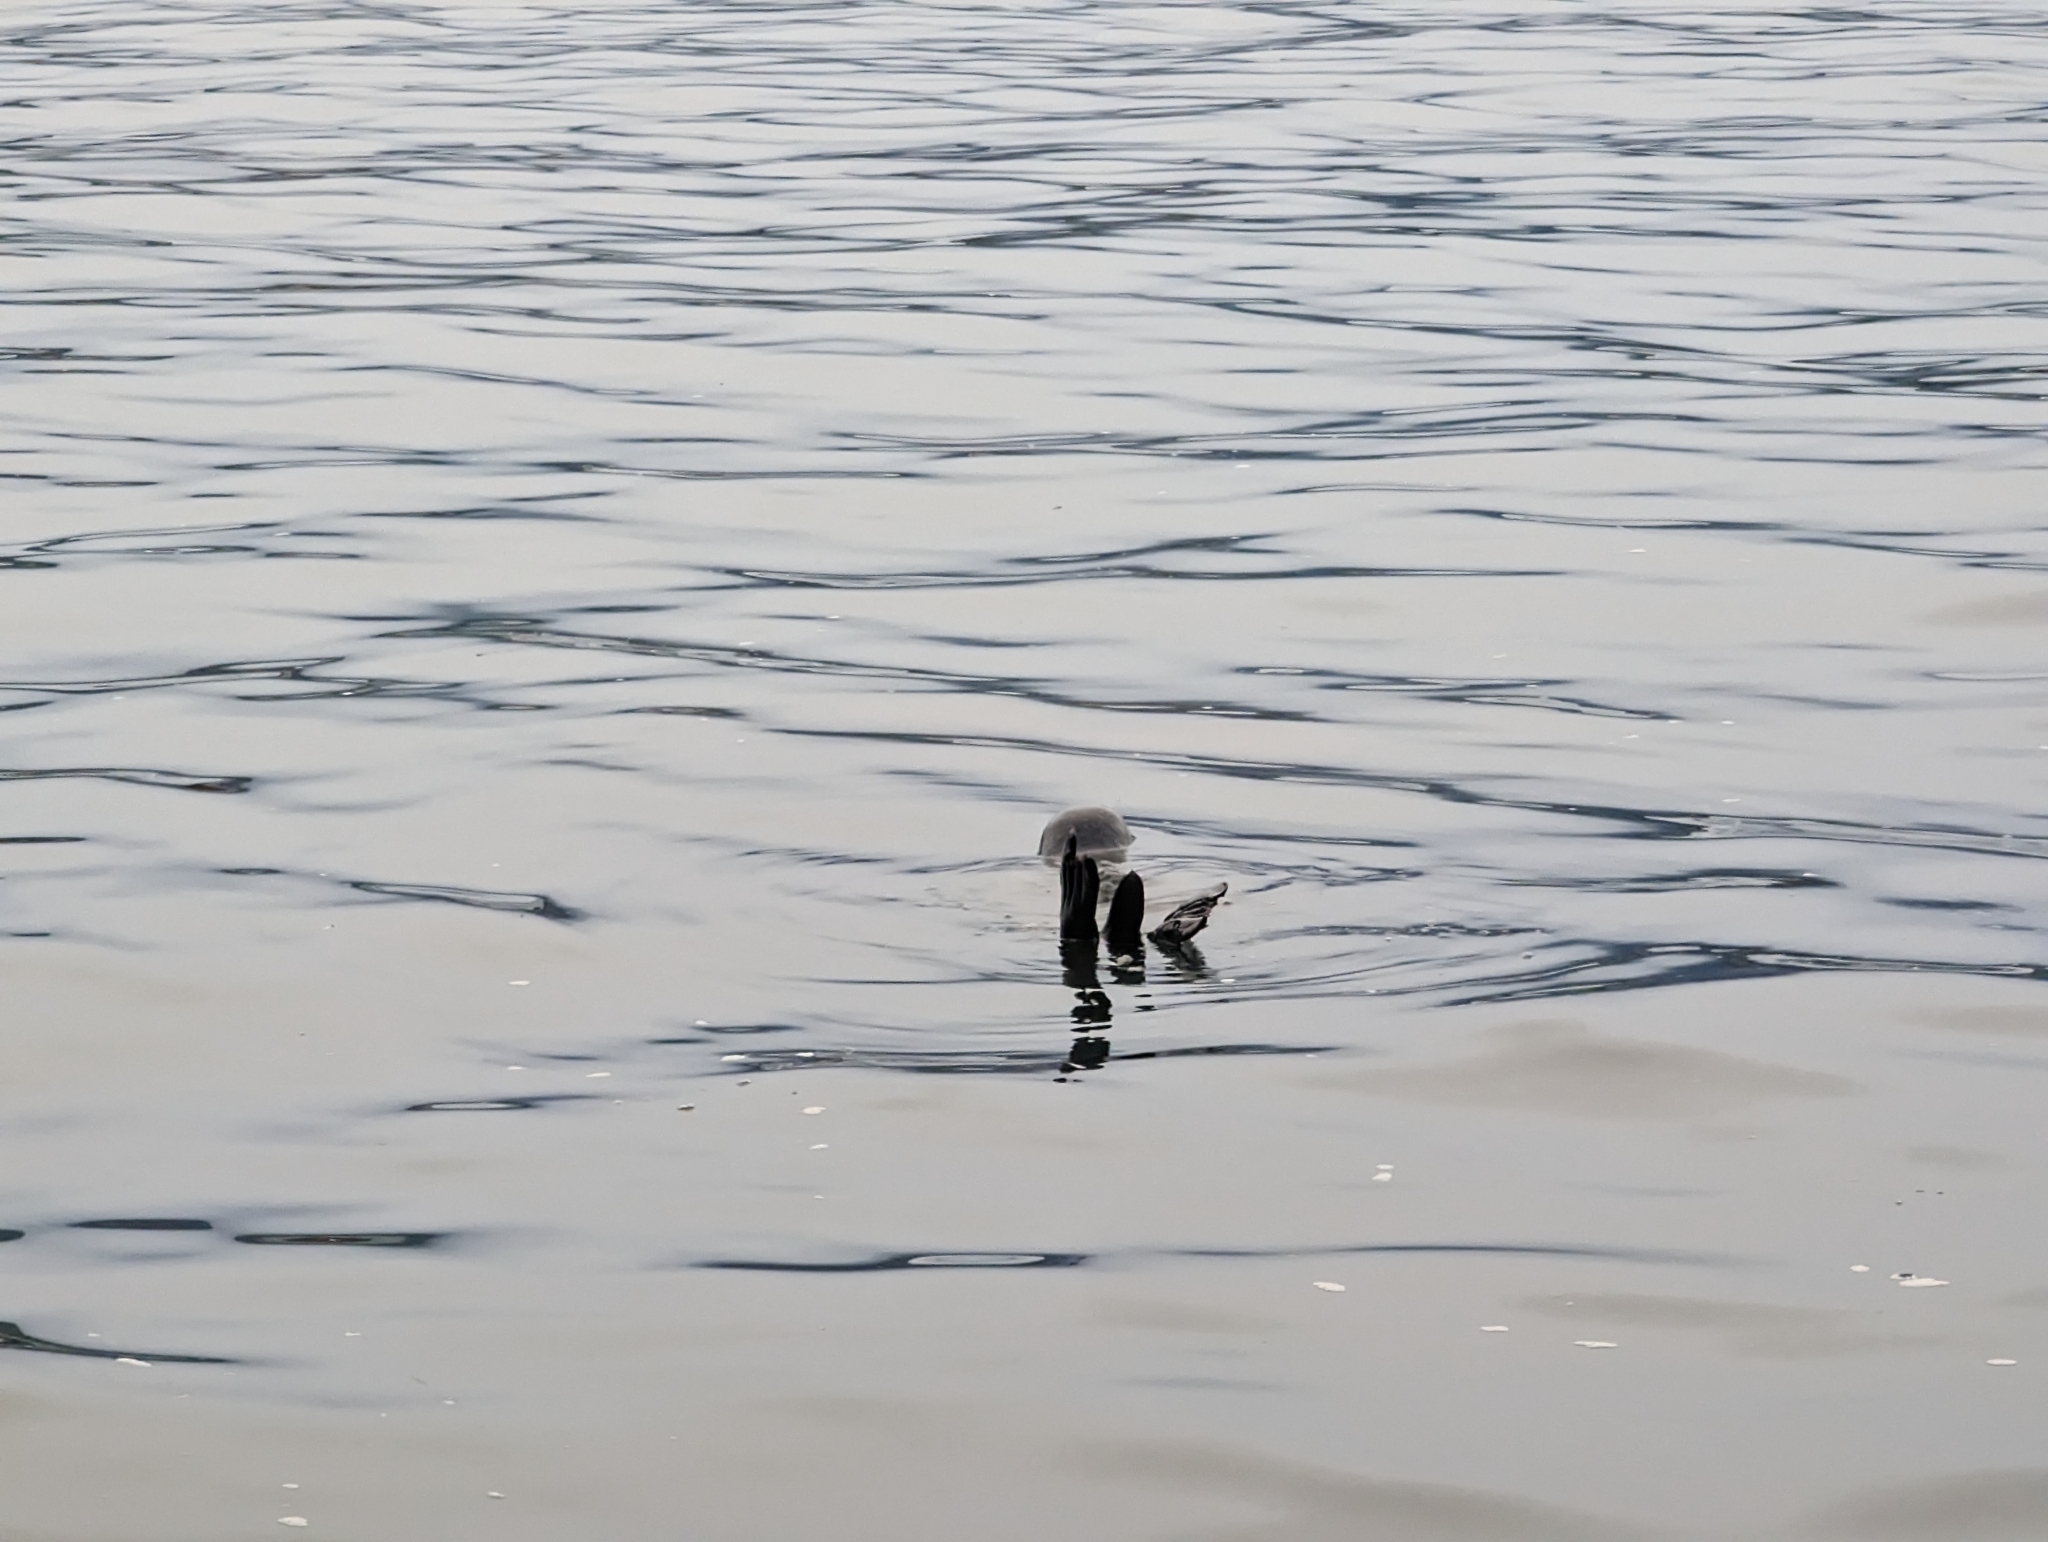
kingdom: Animalia
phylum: Chordata
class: Mammalia
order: Carnivora
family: Phocidae
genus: Phoca
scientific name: Phoca vitulina
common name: Harbor seal
